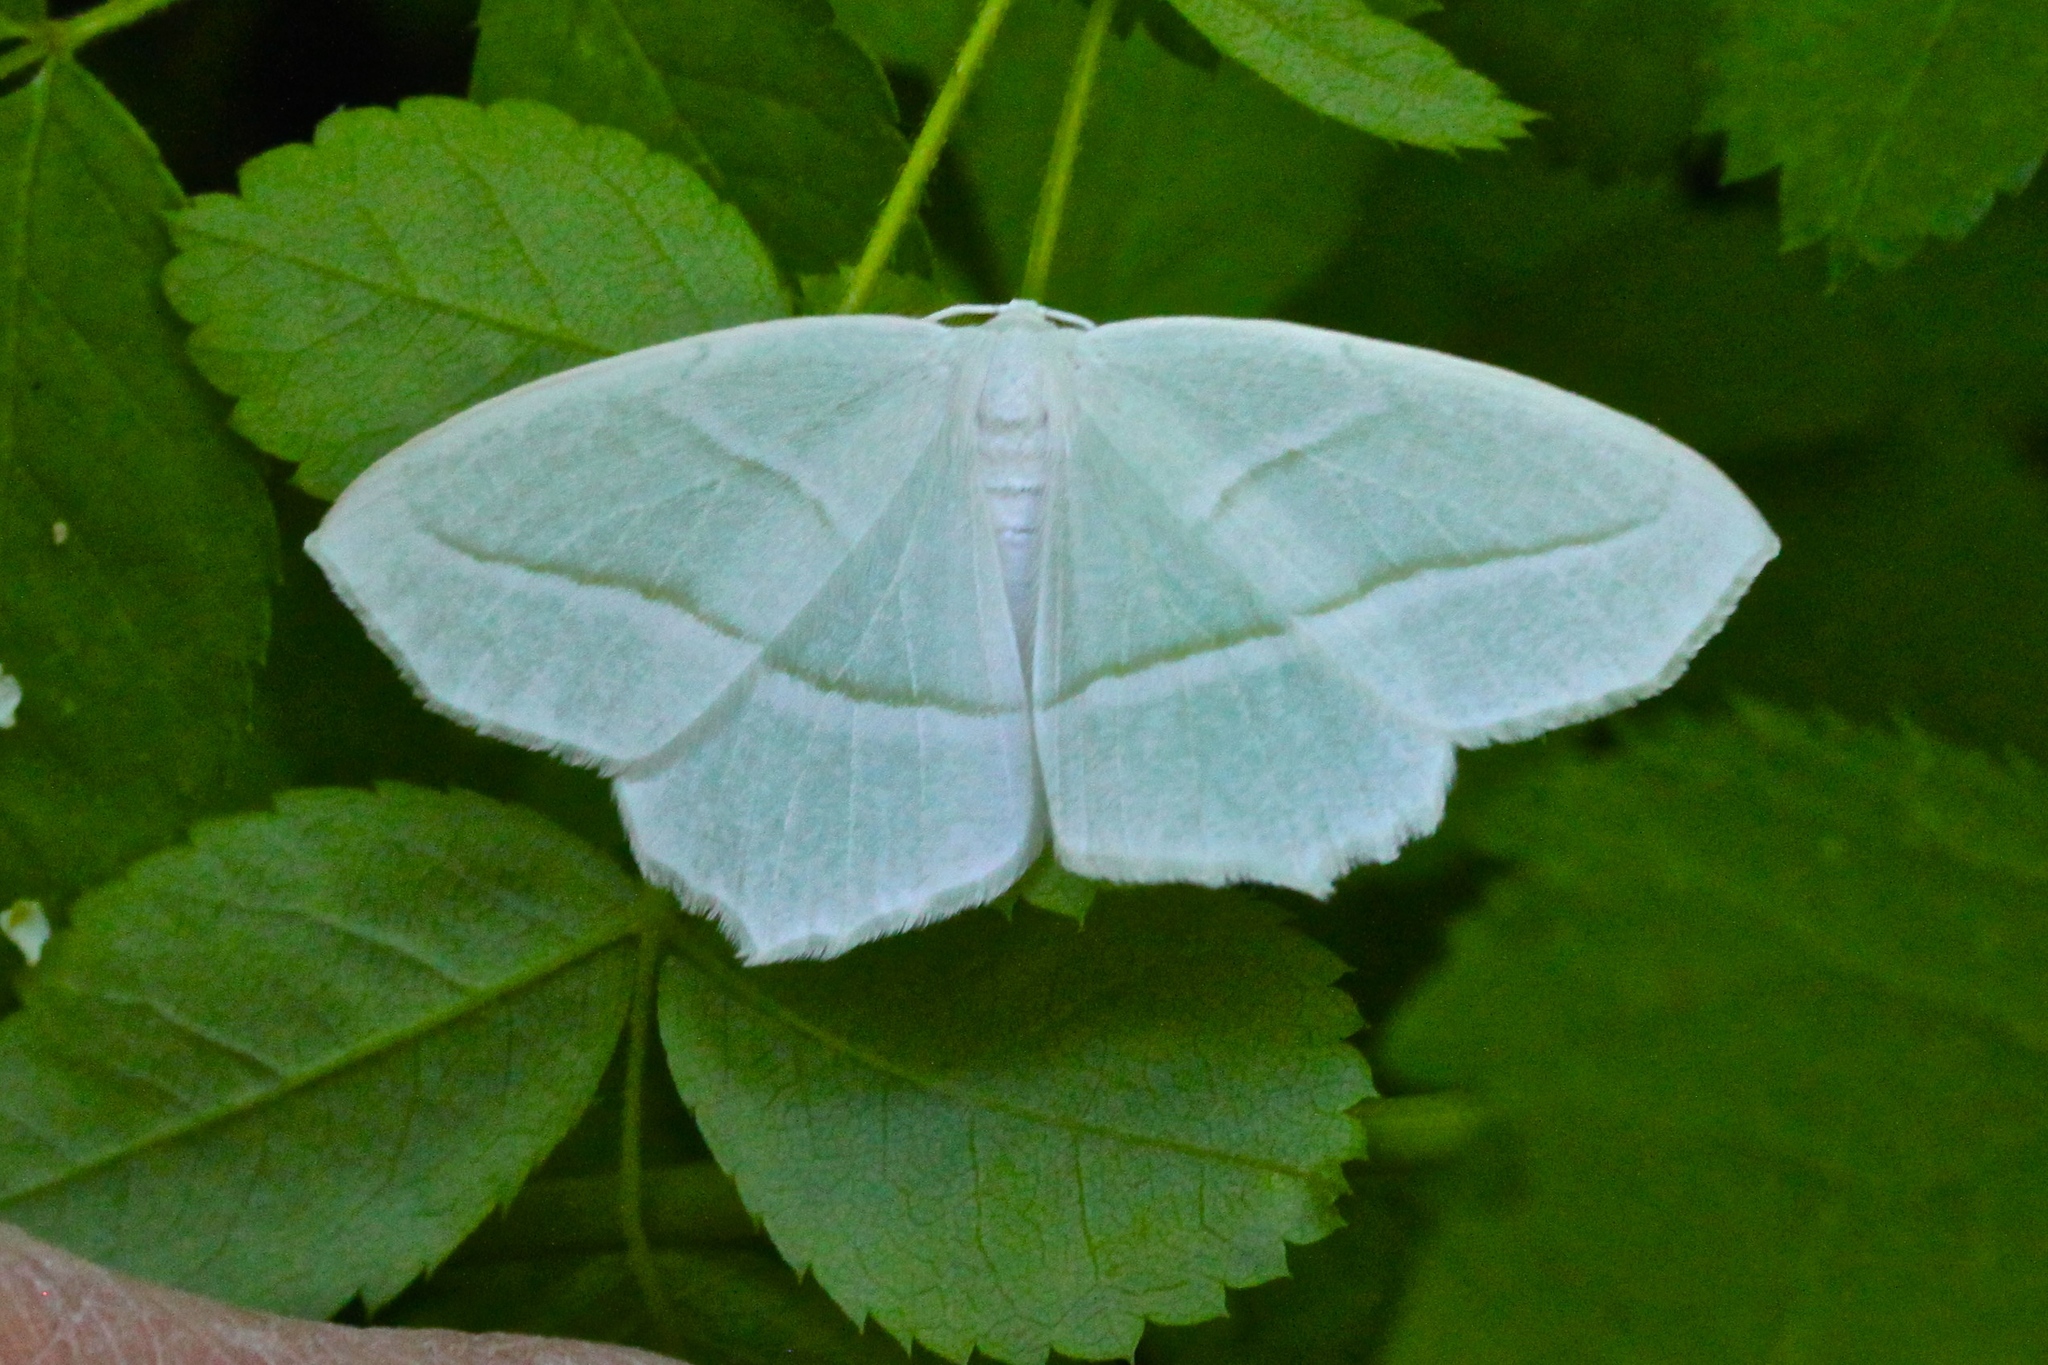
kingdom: Animalia
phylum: Arthropoda
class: Insecta
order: Lepidoptera
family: Geometridae
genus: Campaea
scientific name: Campaea perlata
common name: Fringed looper
